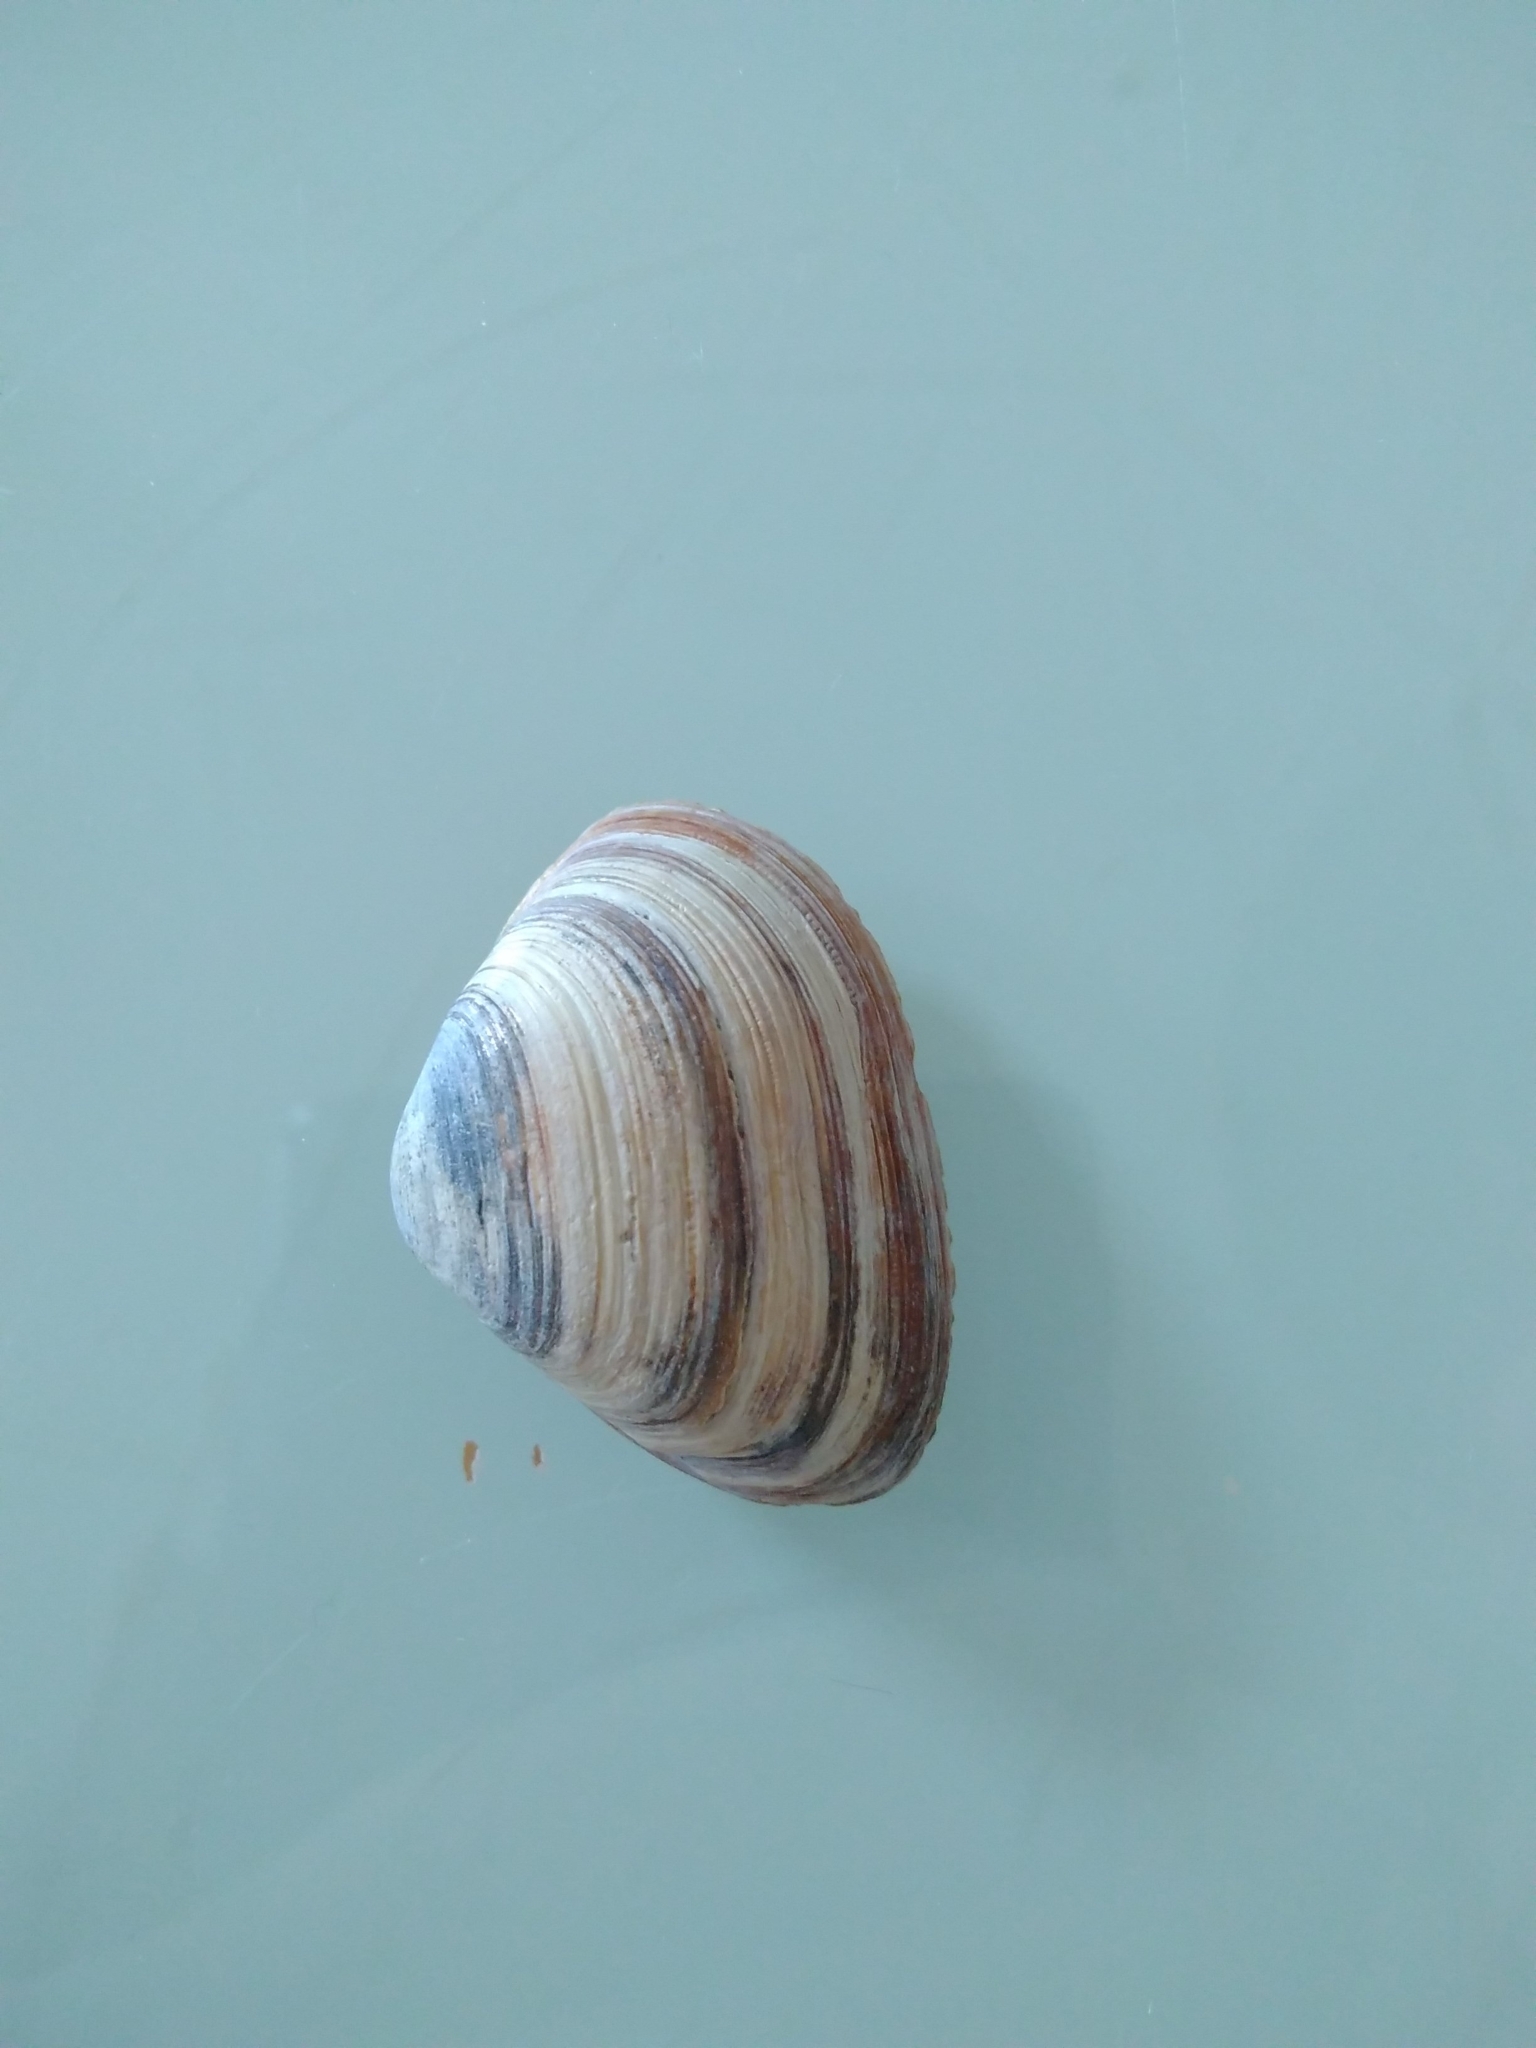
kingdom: Animalia
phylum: Mollusca
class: Bivalvia
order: Venerida
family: Mactridae
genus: Spisula
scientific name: Spisula subtruncata
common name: Cut trough shell
